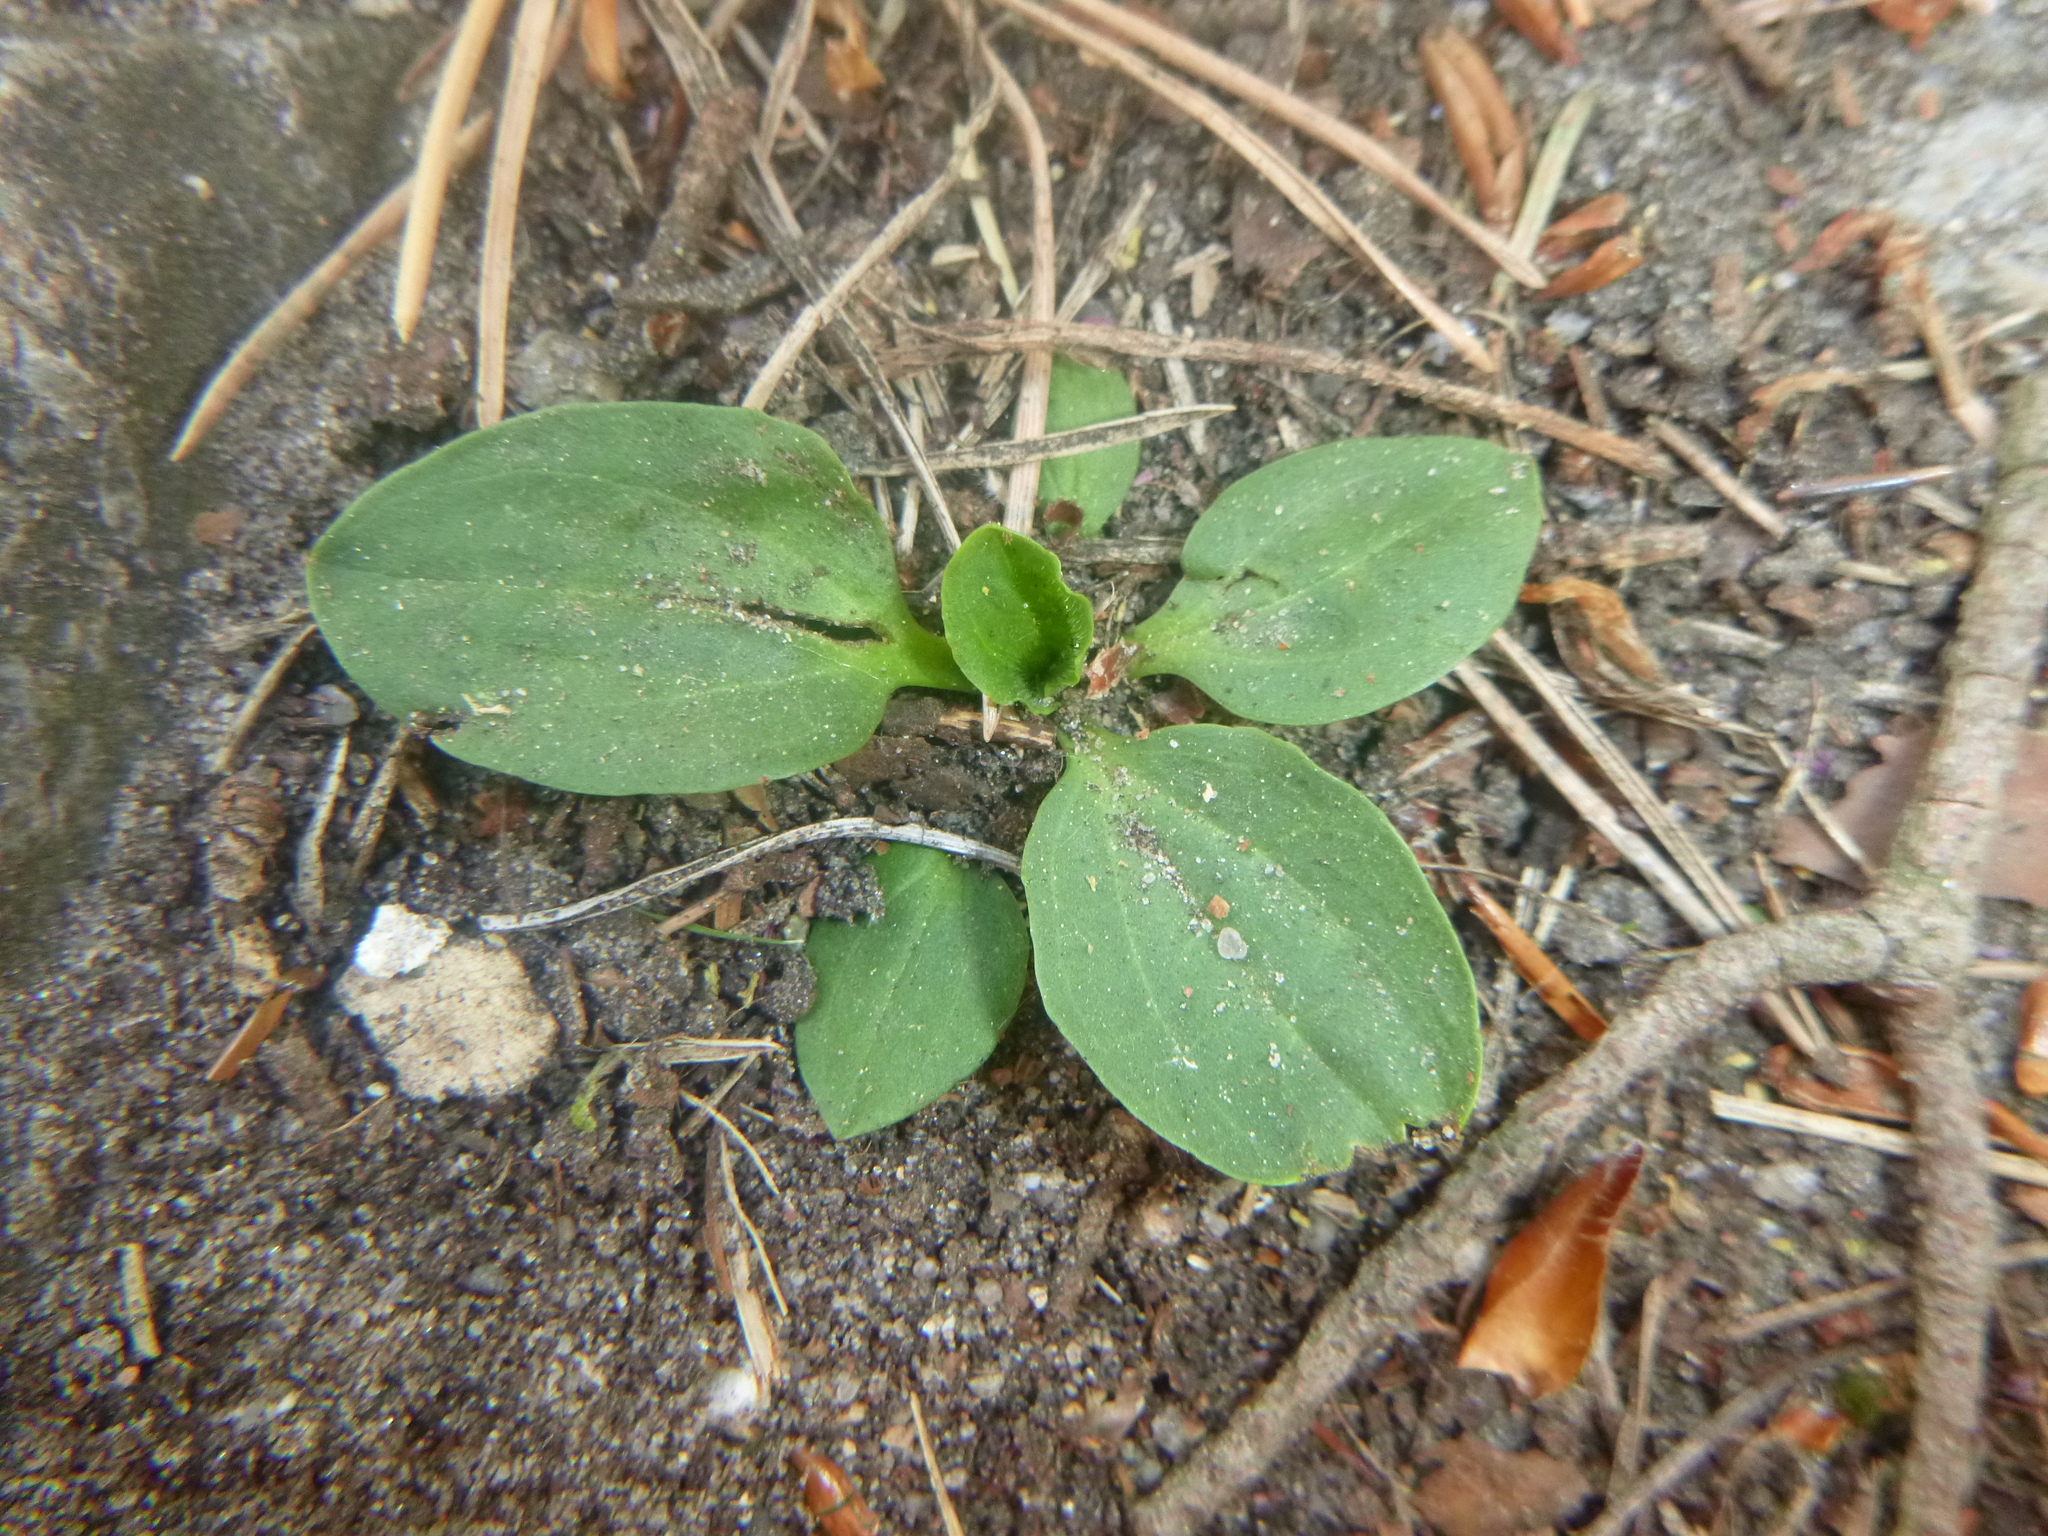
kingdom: Plantae
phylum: Tracheophyta
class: Magnoliopsida
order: Lamiales
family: Plantaginaceae
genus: Plantago
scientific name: Plantago major
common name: Common plantain
